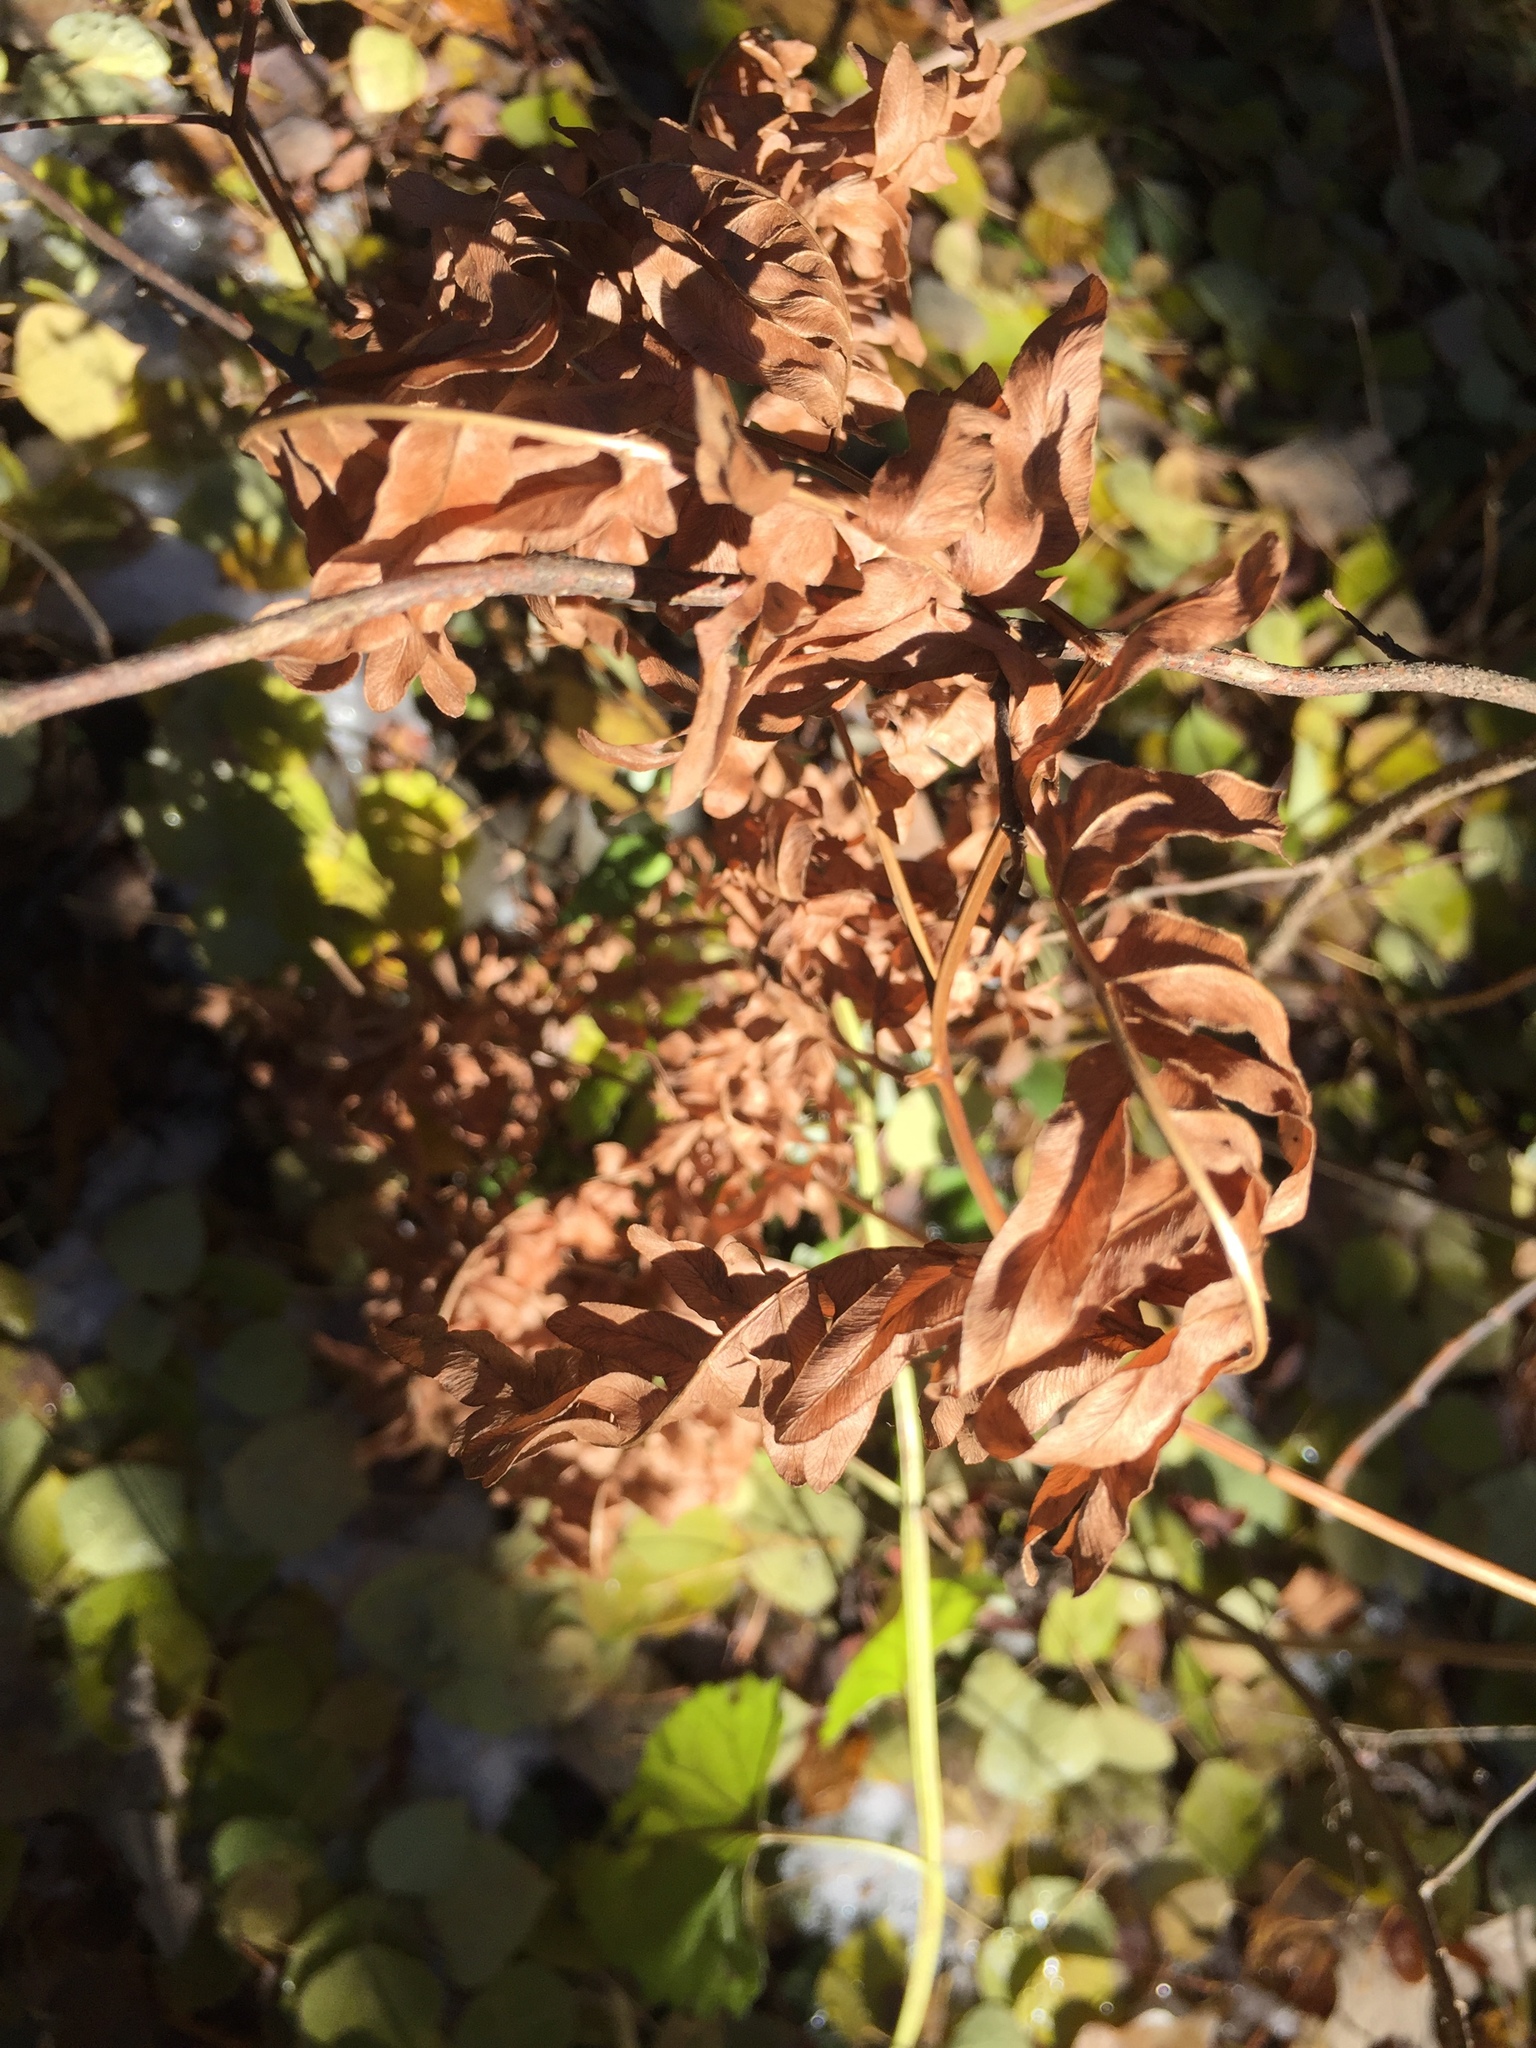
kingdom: Plantae
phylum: Tracheophyta
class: Polypodiopsida
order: Polypodiales
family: Dennstaedtiaceae
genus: Pteridium
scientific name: Pteridium aquilinum
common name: Bracken
